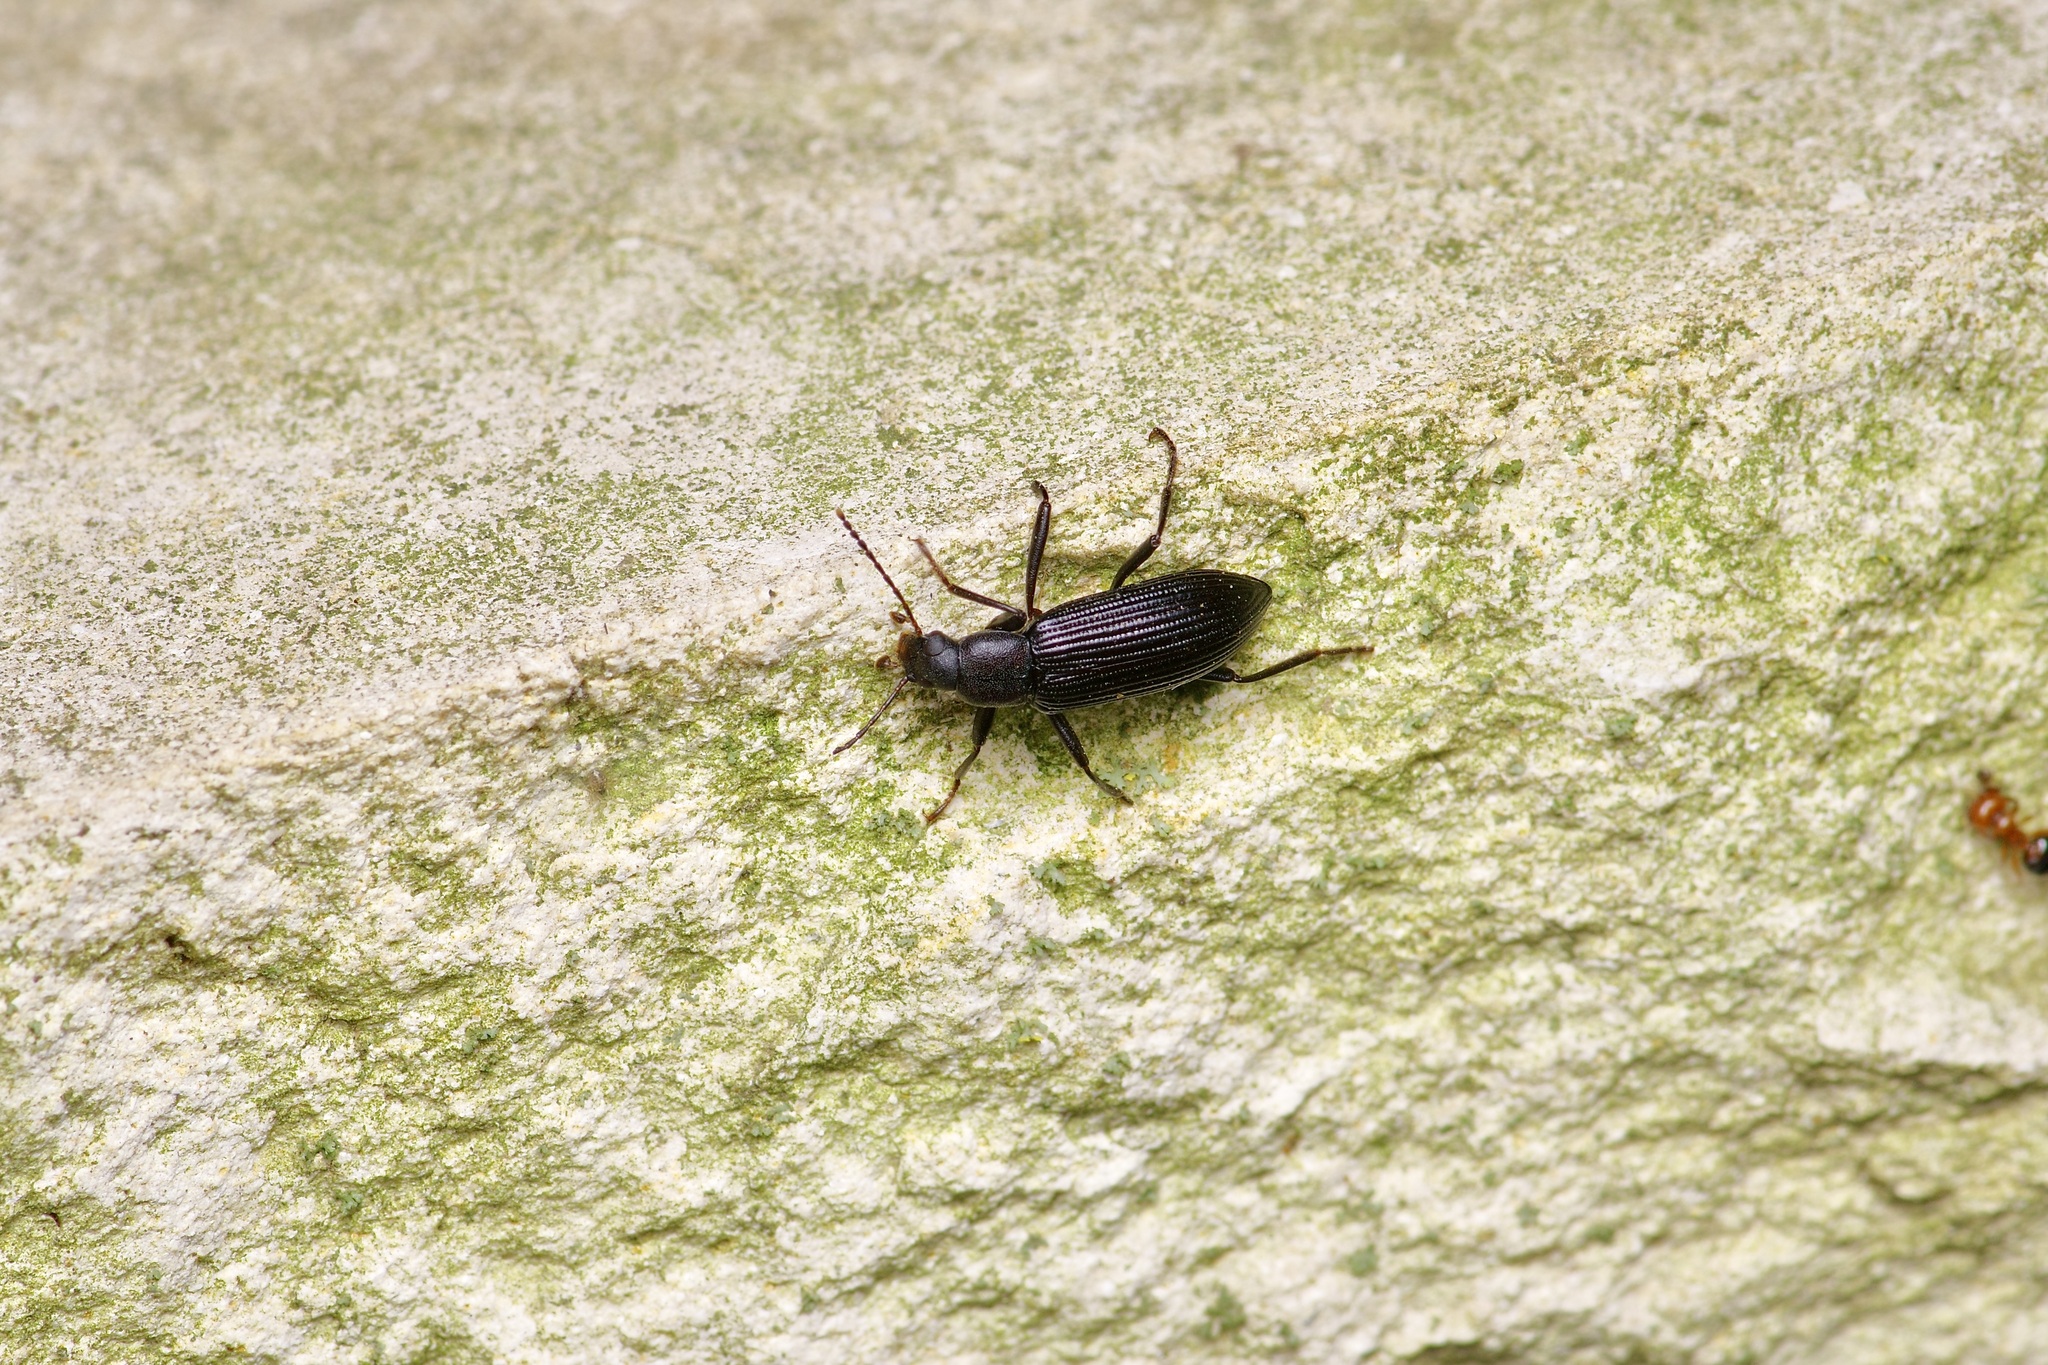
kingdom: Animalia
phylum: Arthropoda
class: Insecta
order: Coleoptera
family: Tenebrionidae
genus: Strongylium
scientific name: Strongylium tenuicolle
